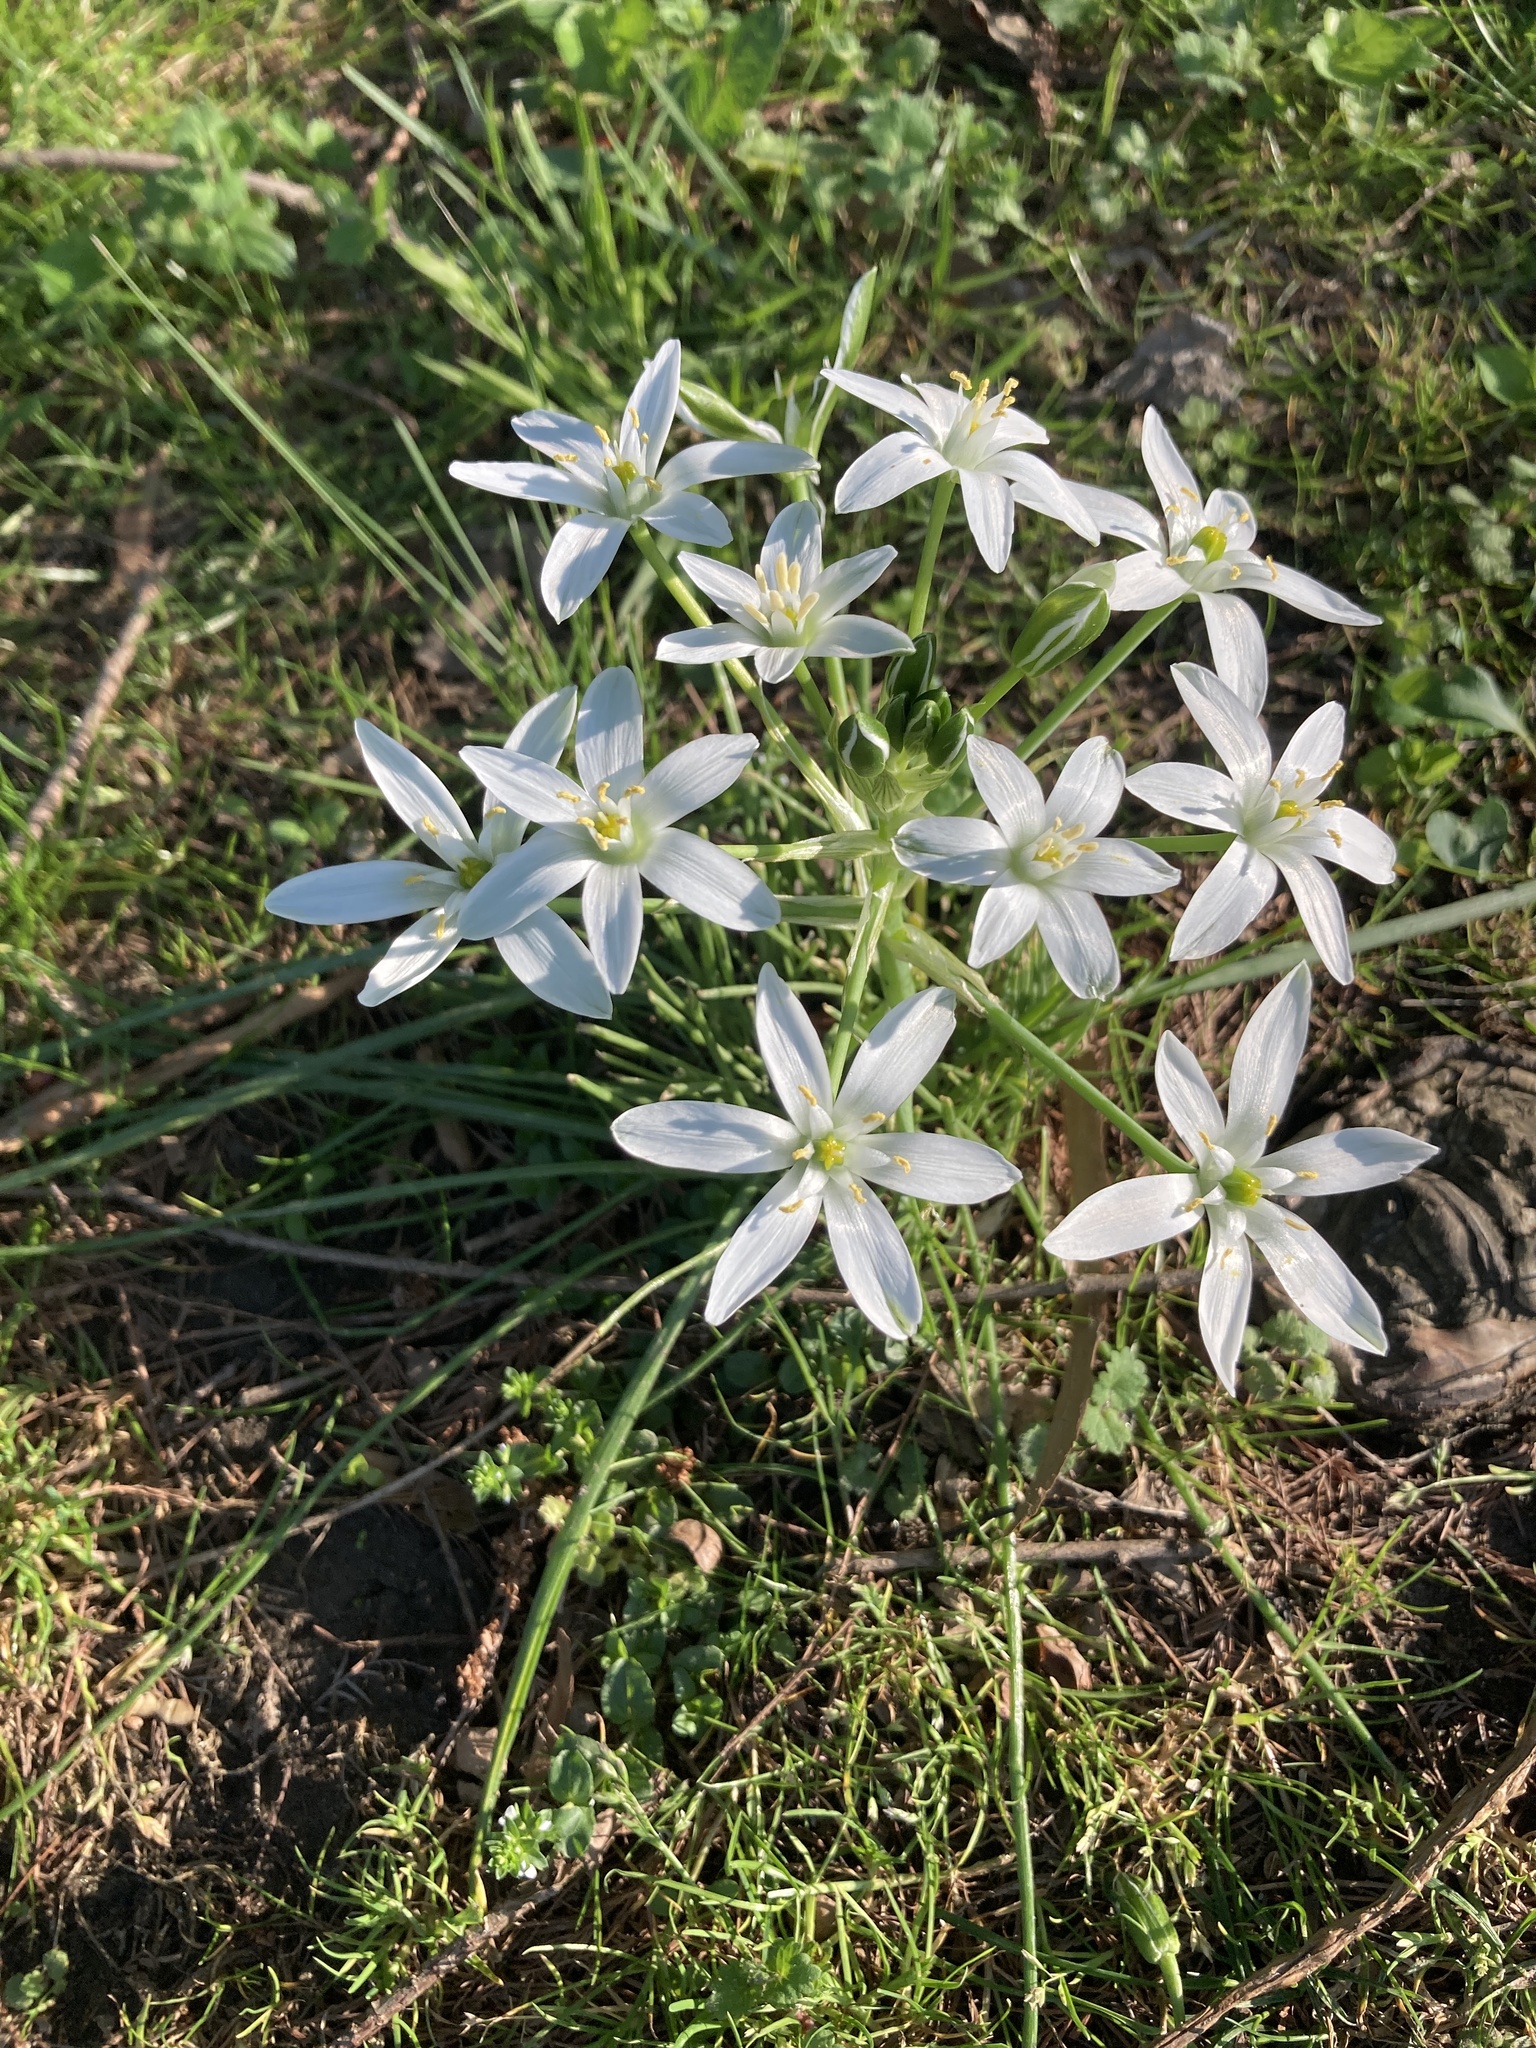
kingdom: Plantae
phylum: Tracheophyta
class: Liliopsida
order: Asparagales
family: Asparagaceae
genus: Ornithogalum
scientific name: Ornithogalum umbellatum
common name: Garden star-of-bethlehem
